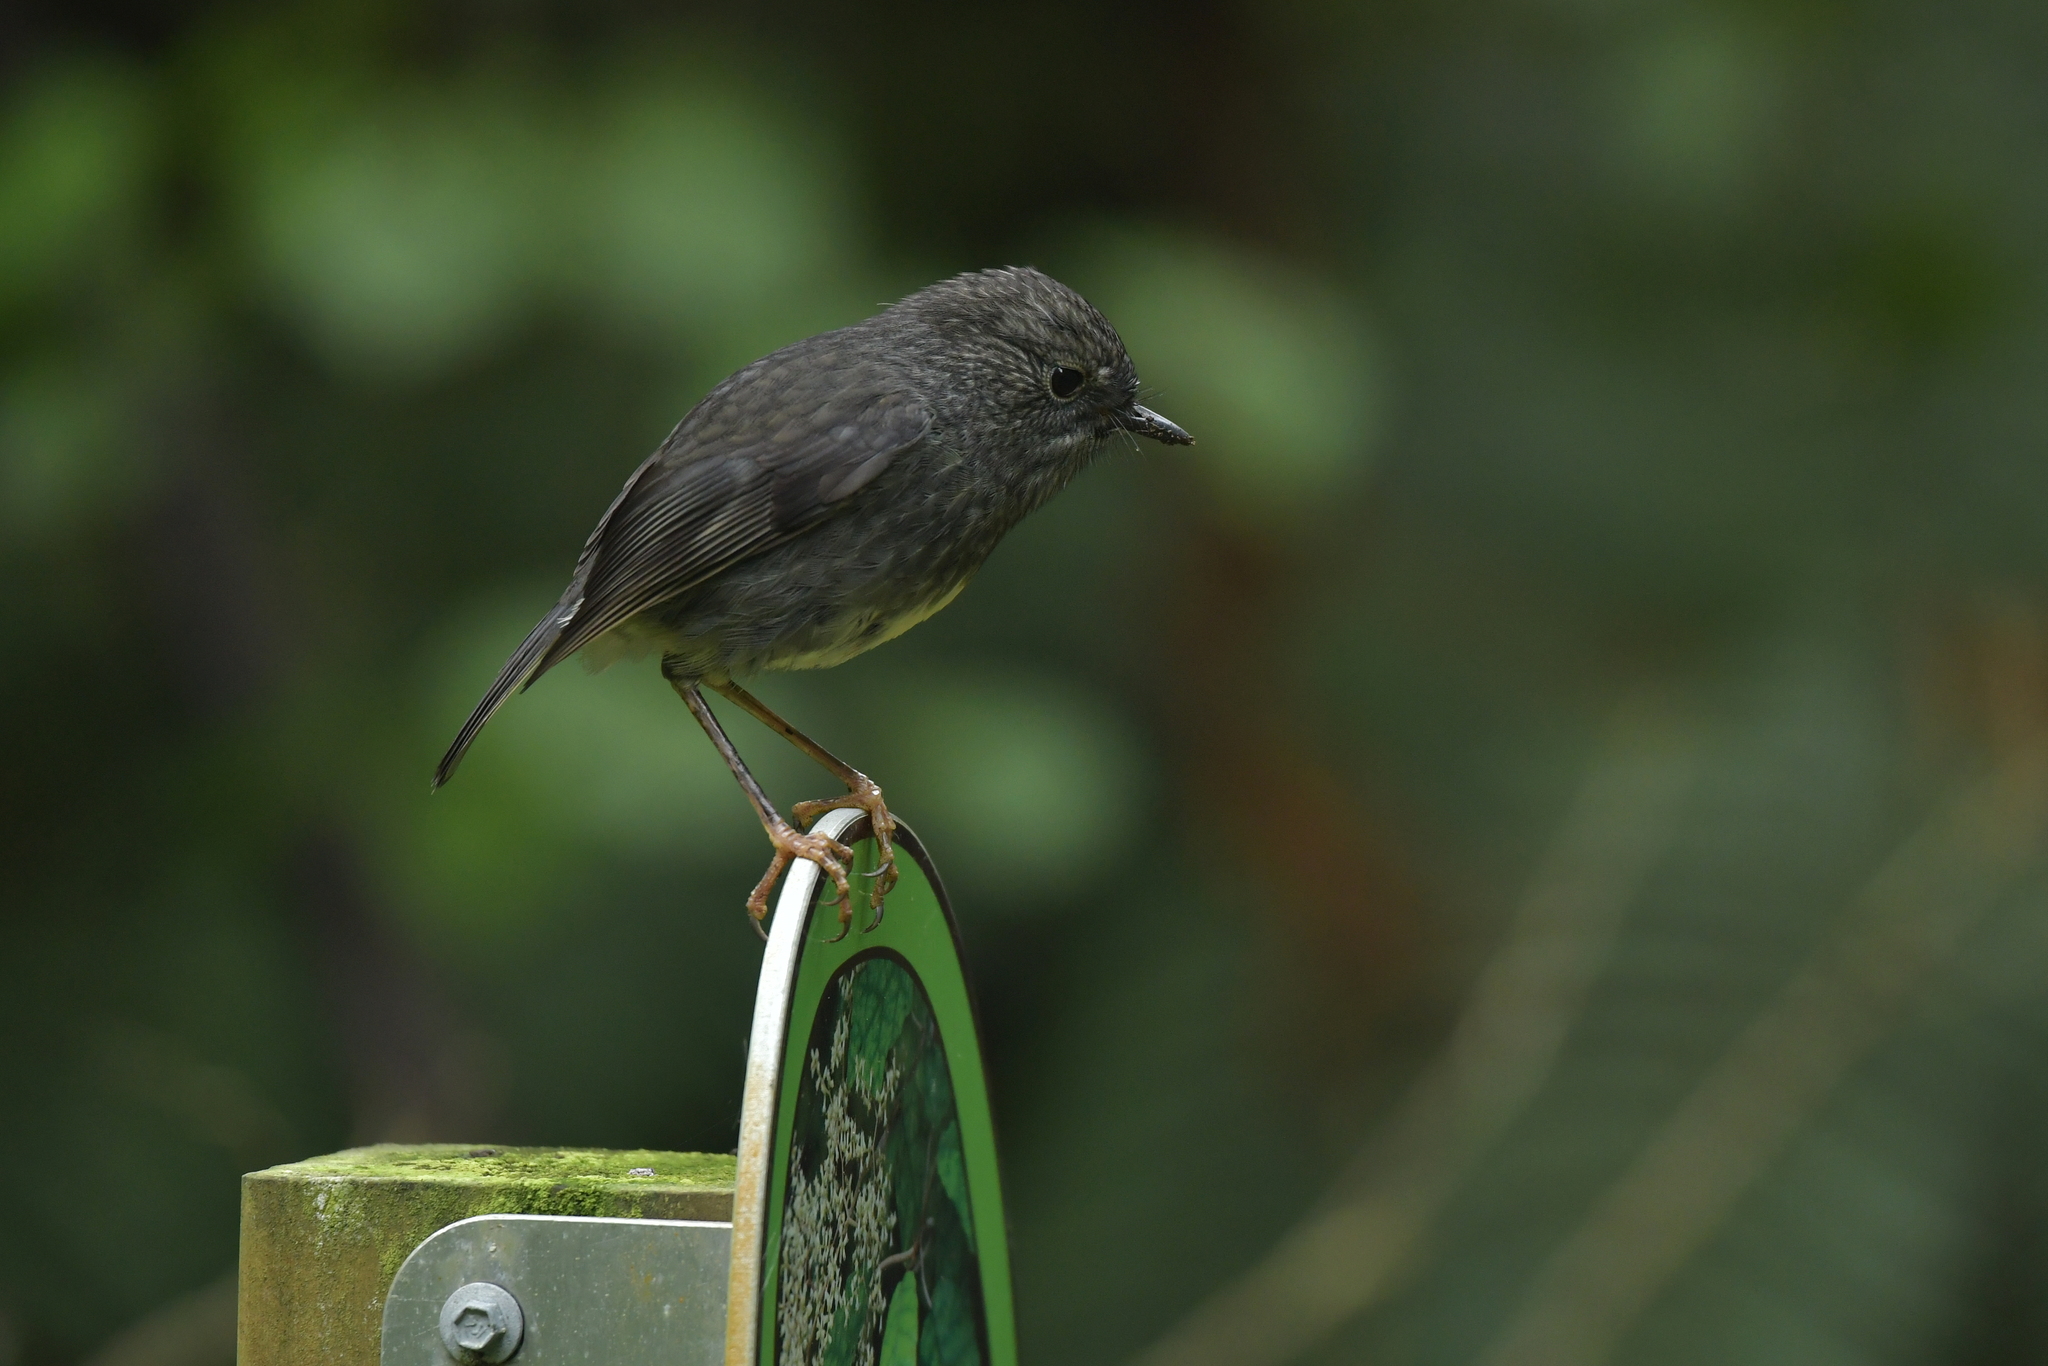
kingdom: Animalia
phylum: Chordata
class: Aves
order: Passeriformes
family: Petroicidae
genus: Petroica
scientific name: Petroica australis
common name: New zealand robin
